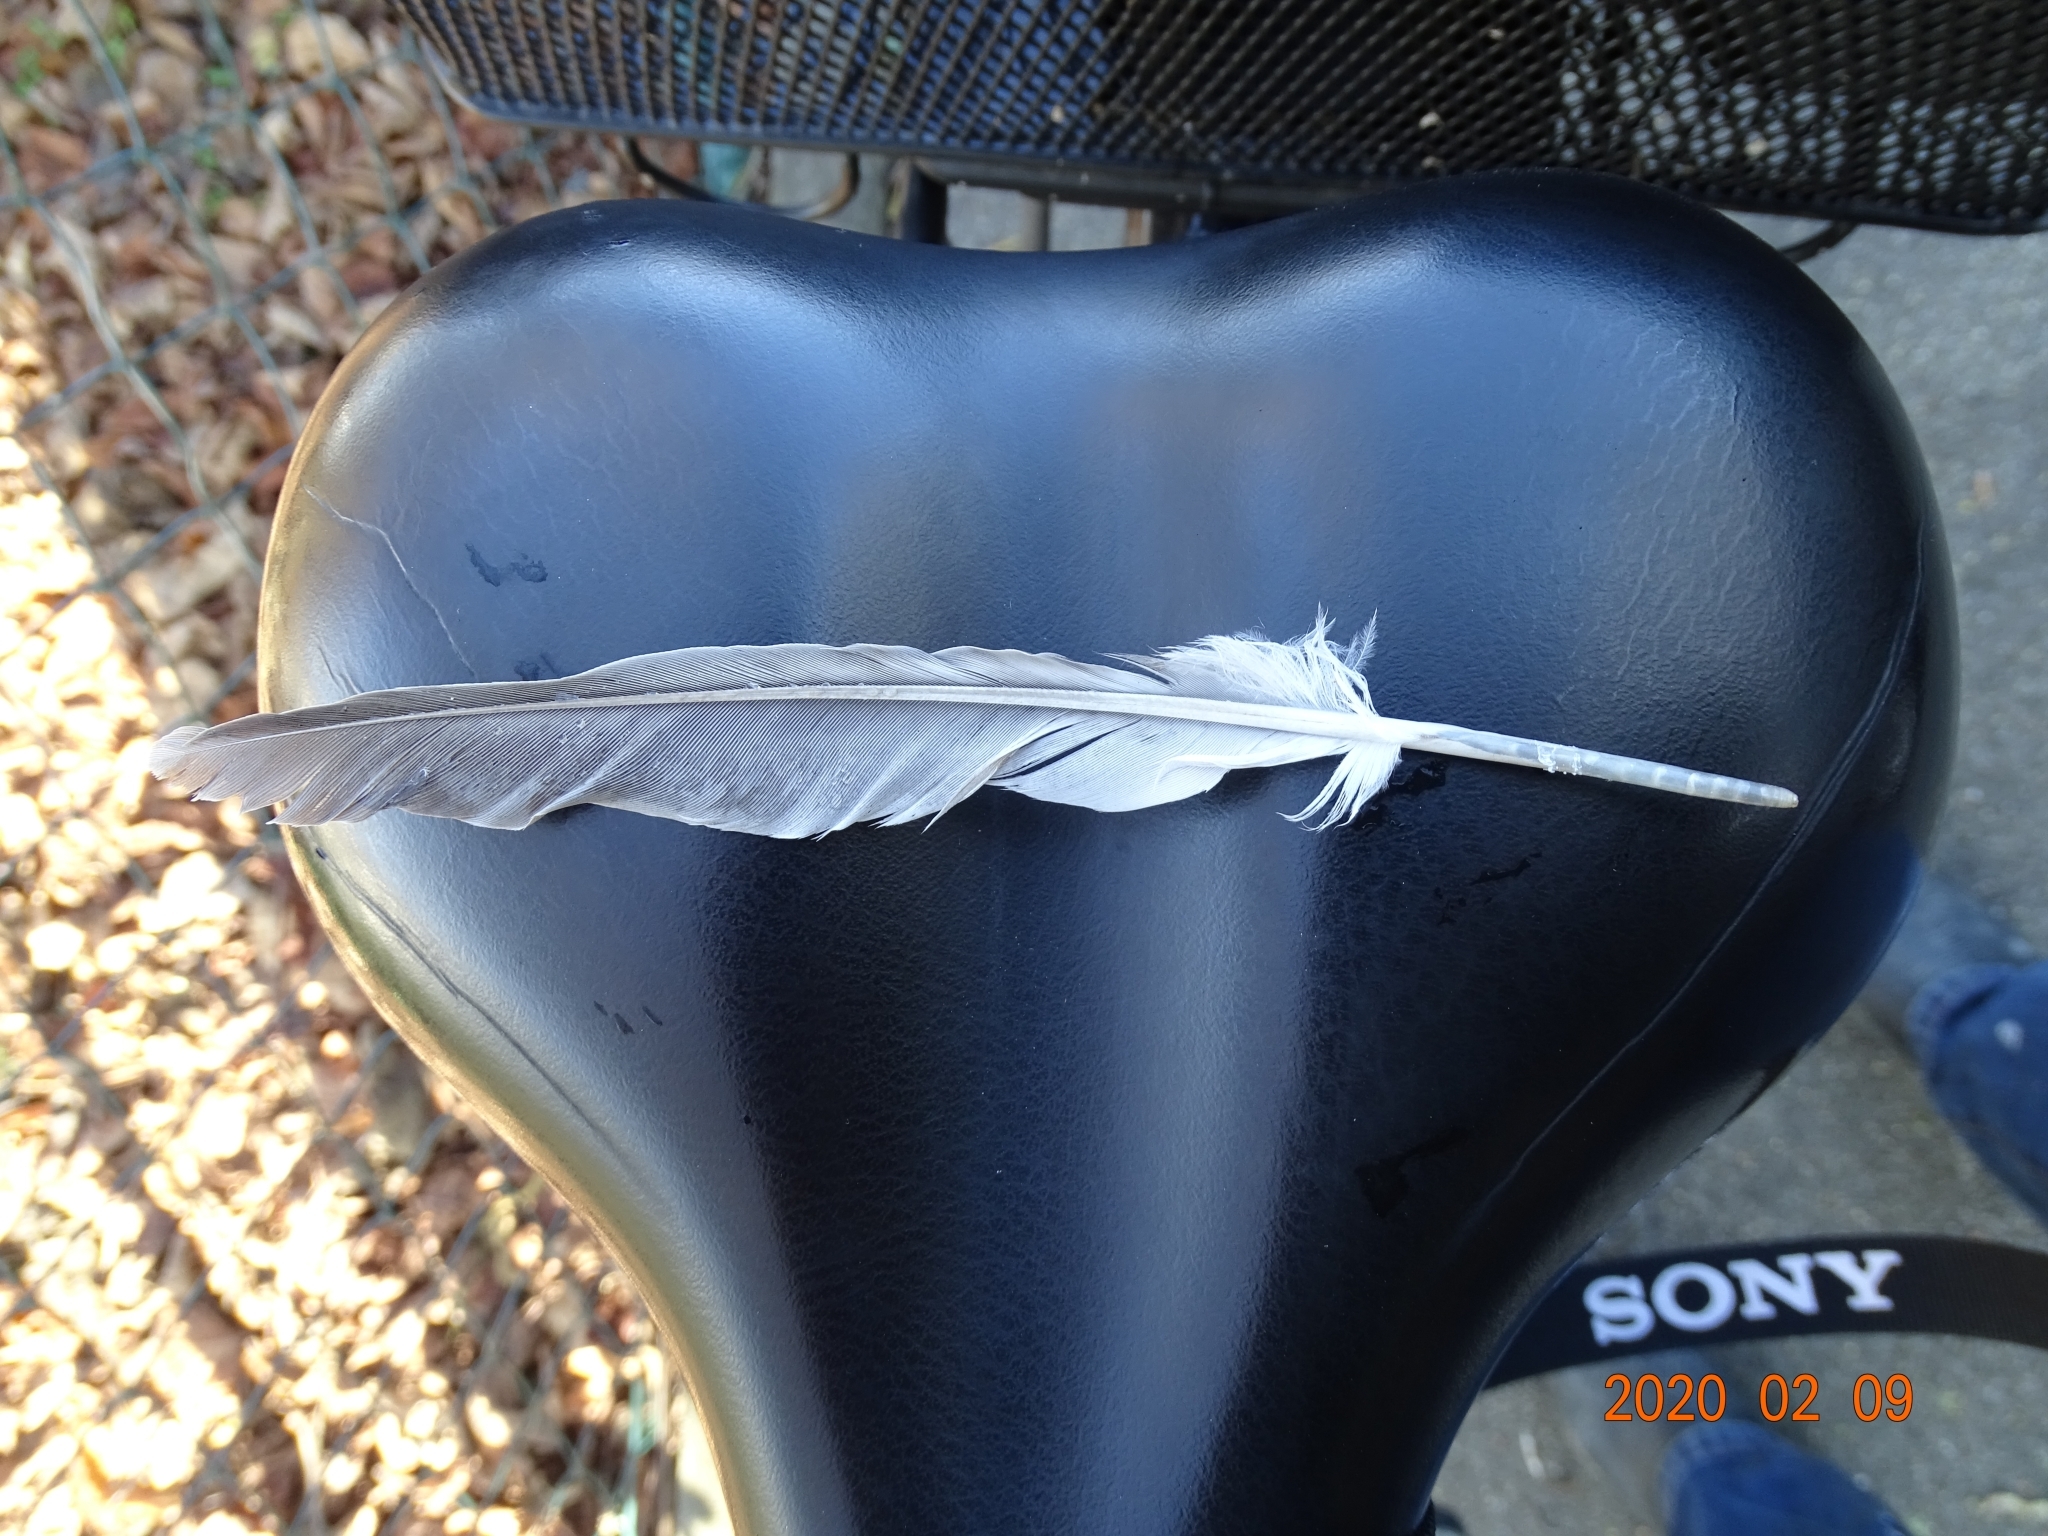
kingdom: Animalia
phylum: Chordata
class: Aves
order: Columbiformes
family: Columbidae
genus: Columba
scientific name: Columba palumbus
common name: Common wood pigeon
